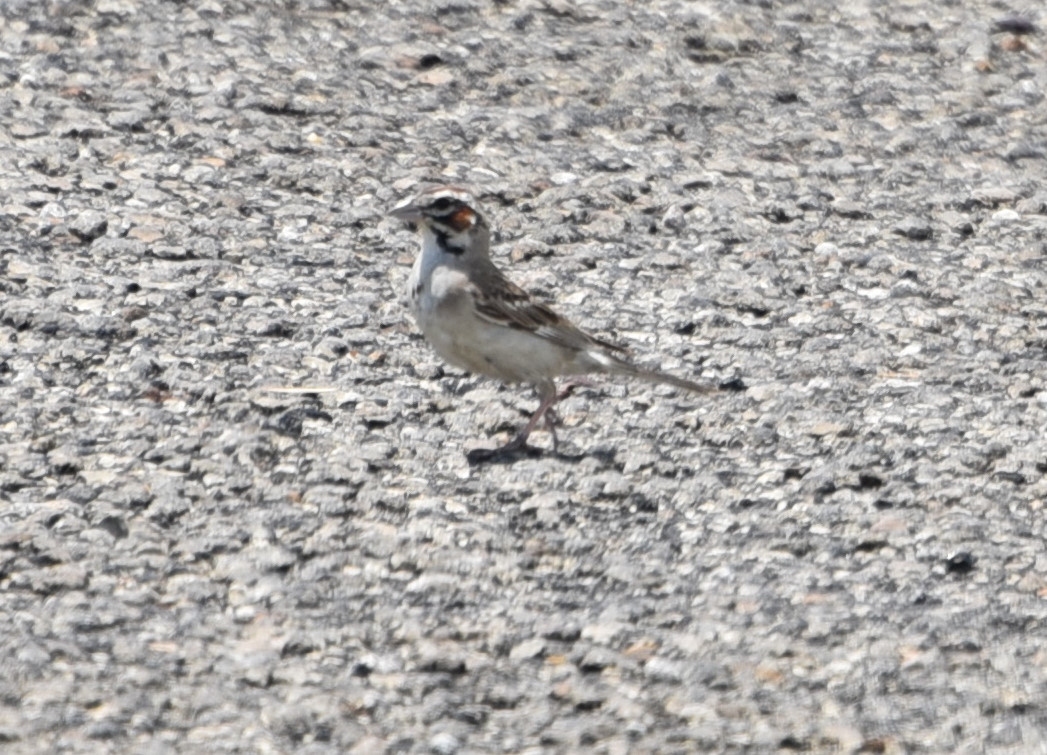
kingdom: Animalia
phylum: Chordata
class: Aves
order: Passeriformes
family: Passerellidae
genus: Chondestes
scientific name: Chondestes grammacus
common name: Lark sparrow
